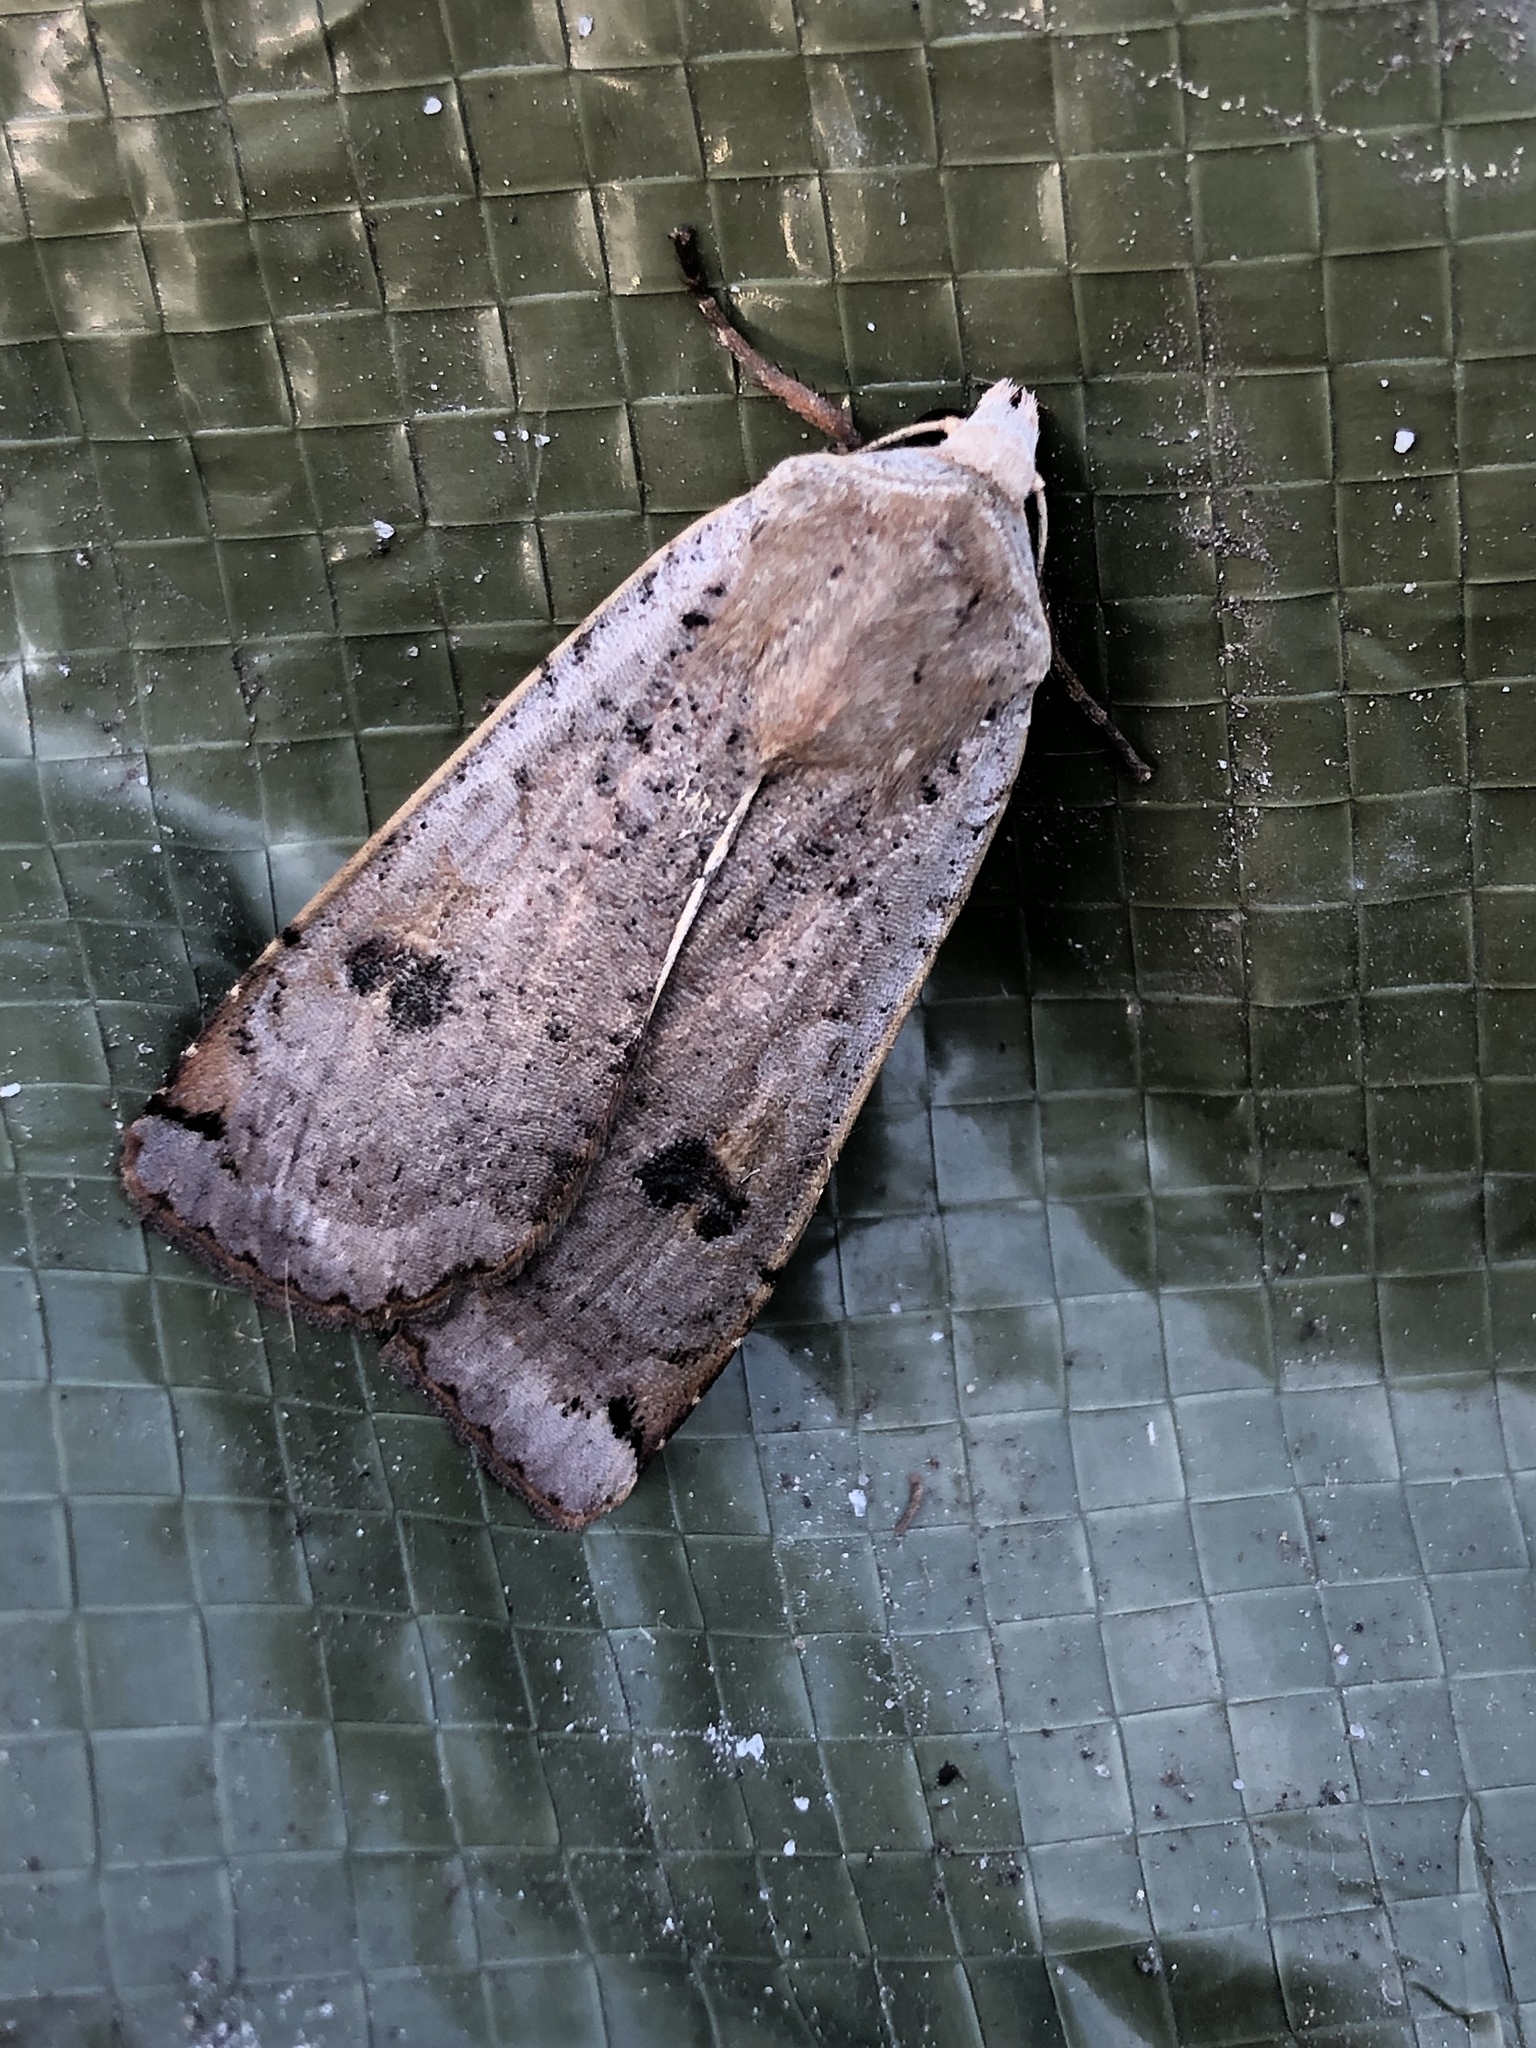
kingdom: Animalia
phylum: Arthropoda
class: Insecta
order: Lepidoptera
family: Noctuidae
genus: Noctua
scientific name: Noctua pronuba
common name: Large yellow underwing
